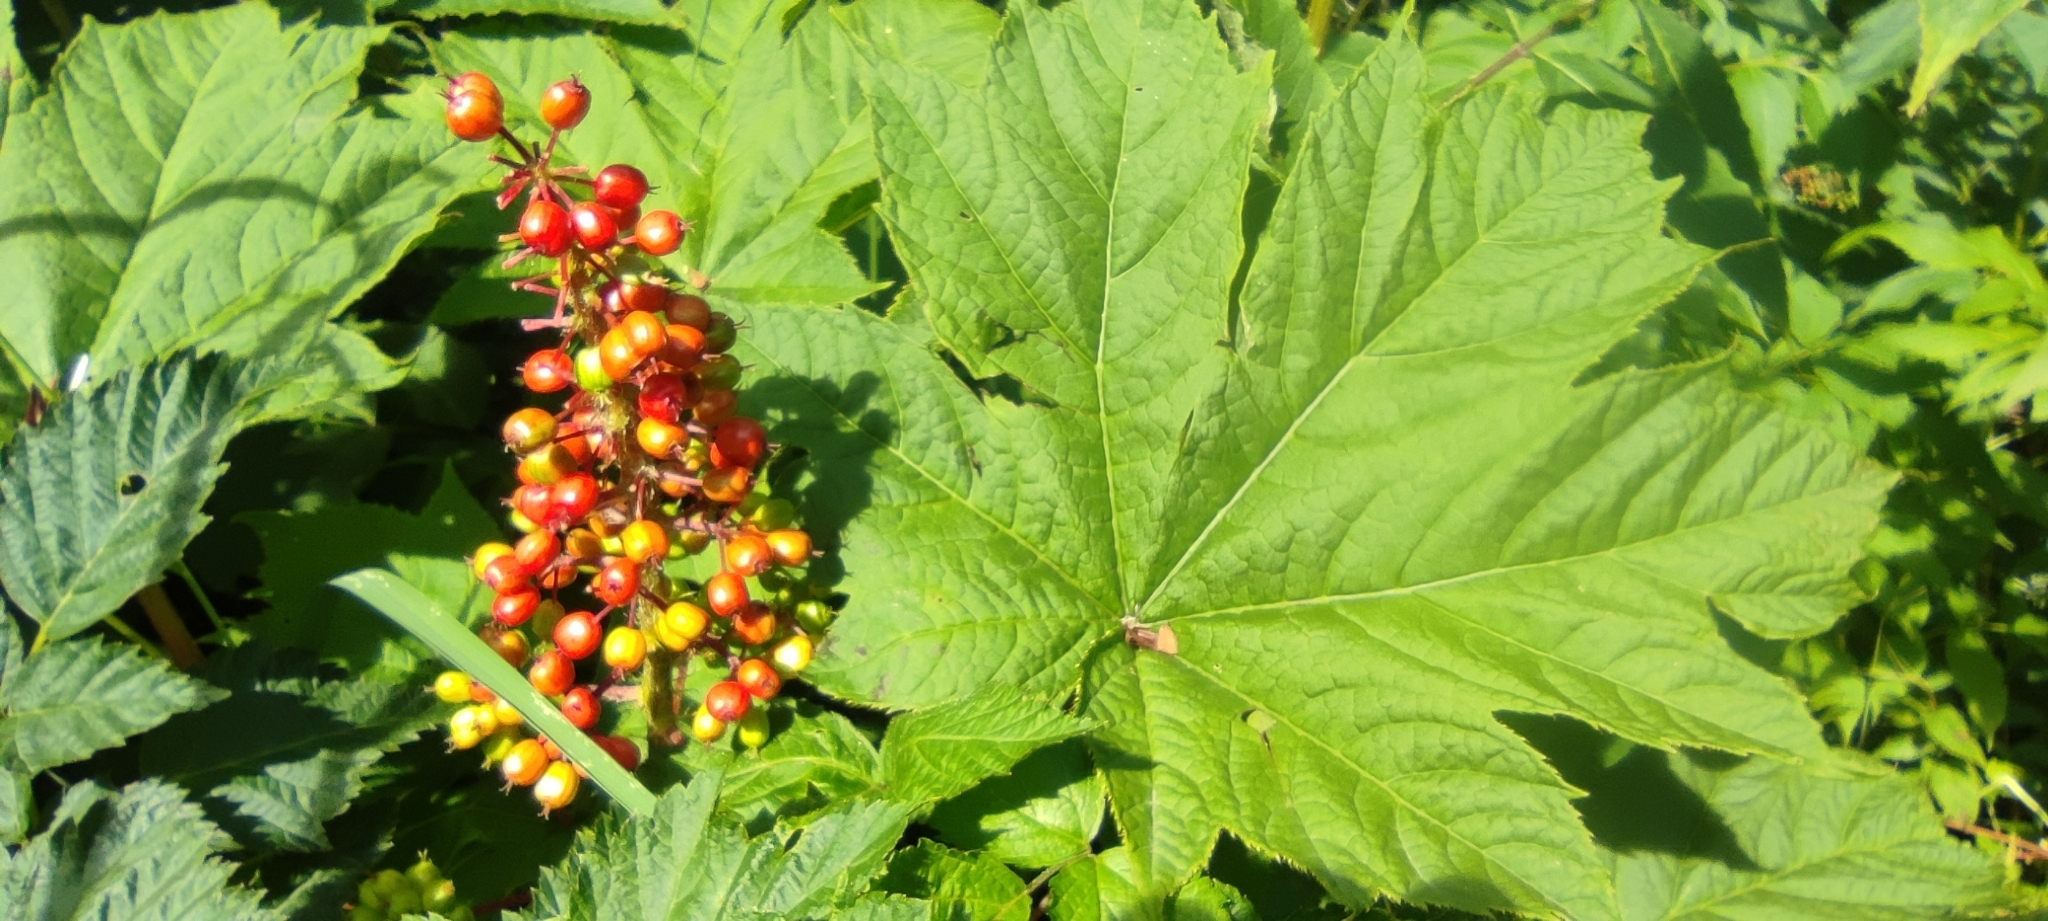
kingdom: Plantae
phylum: Tracheophyta
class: Magnoliopsida
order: Apiales
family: Araliaceae
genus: Oplopanax
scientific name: Oplopanax horridus
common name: Devil's walking-stick
